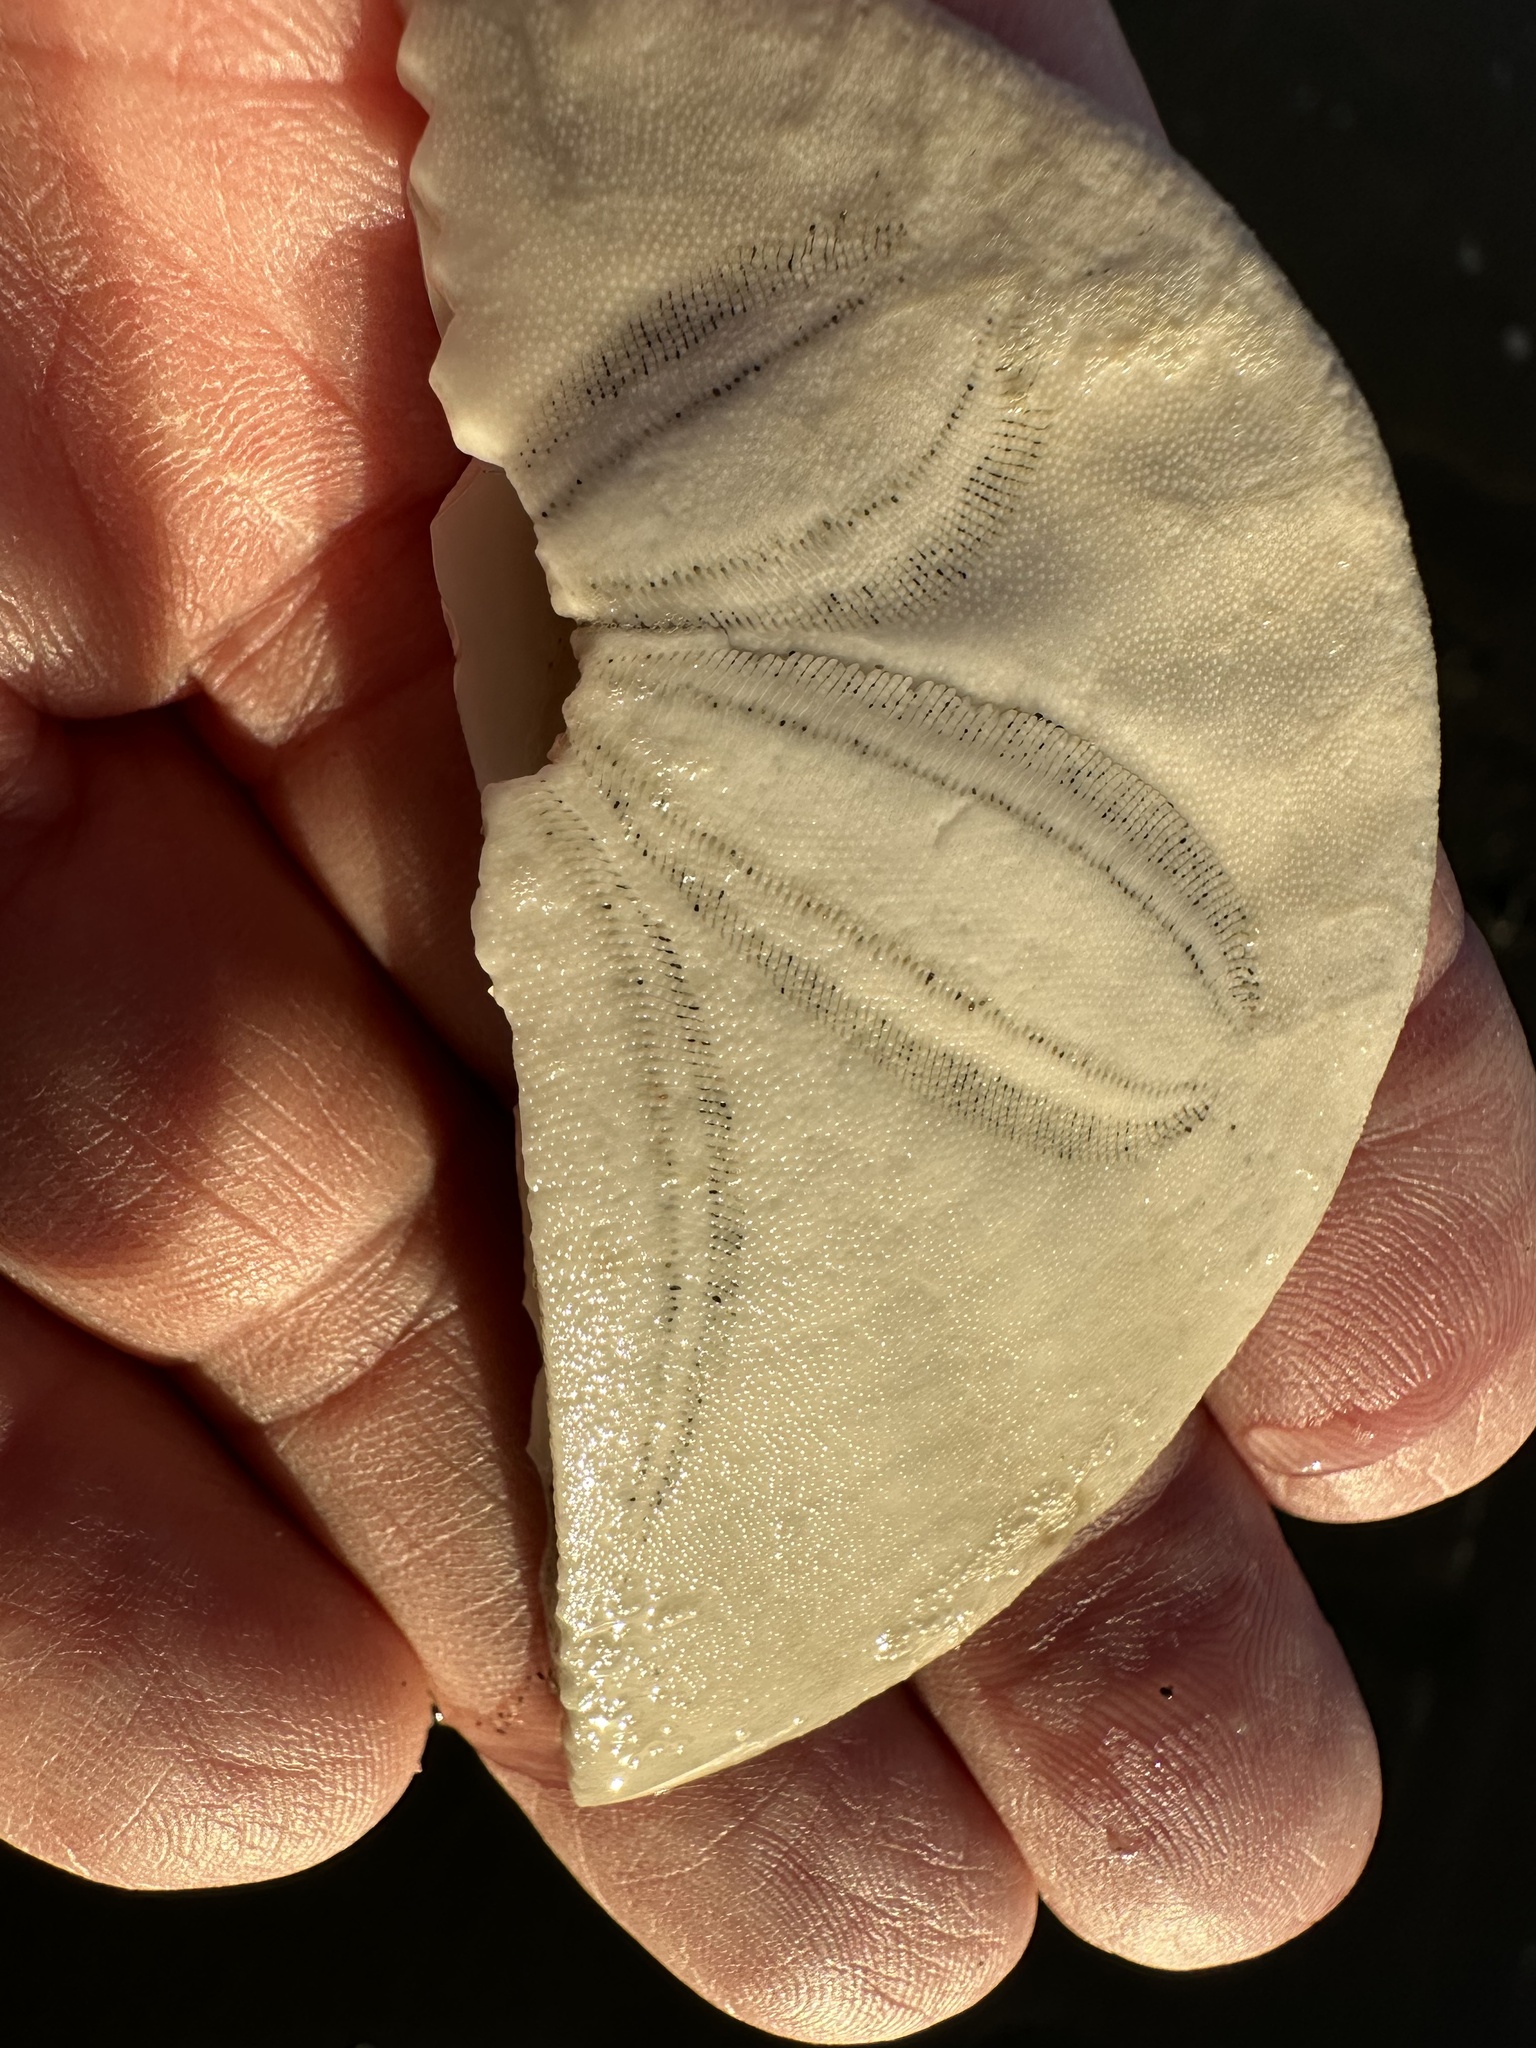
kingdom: Animalia
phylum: Echinodermata
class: Echinoidea
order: Echinolampadacea
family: Dendrasteridae
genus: Dendraster
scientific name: Dendraster excentricus
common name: Eccentric sand dollar sea urchin
